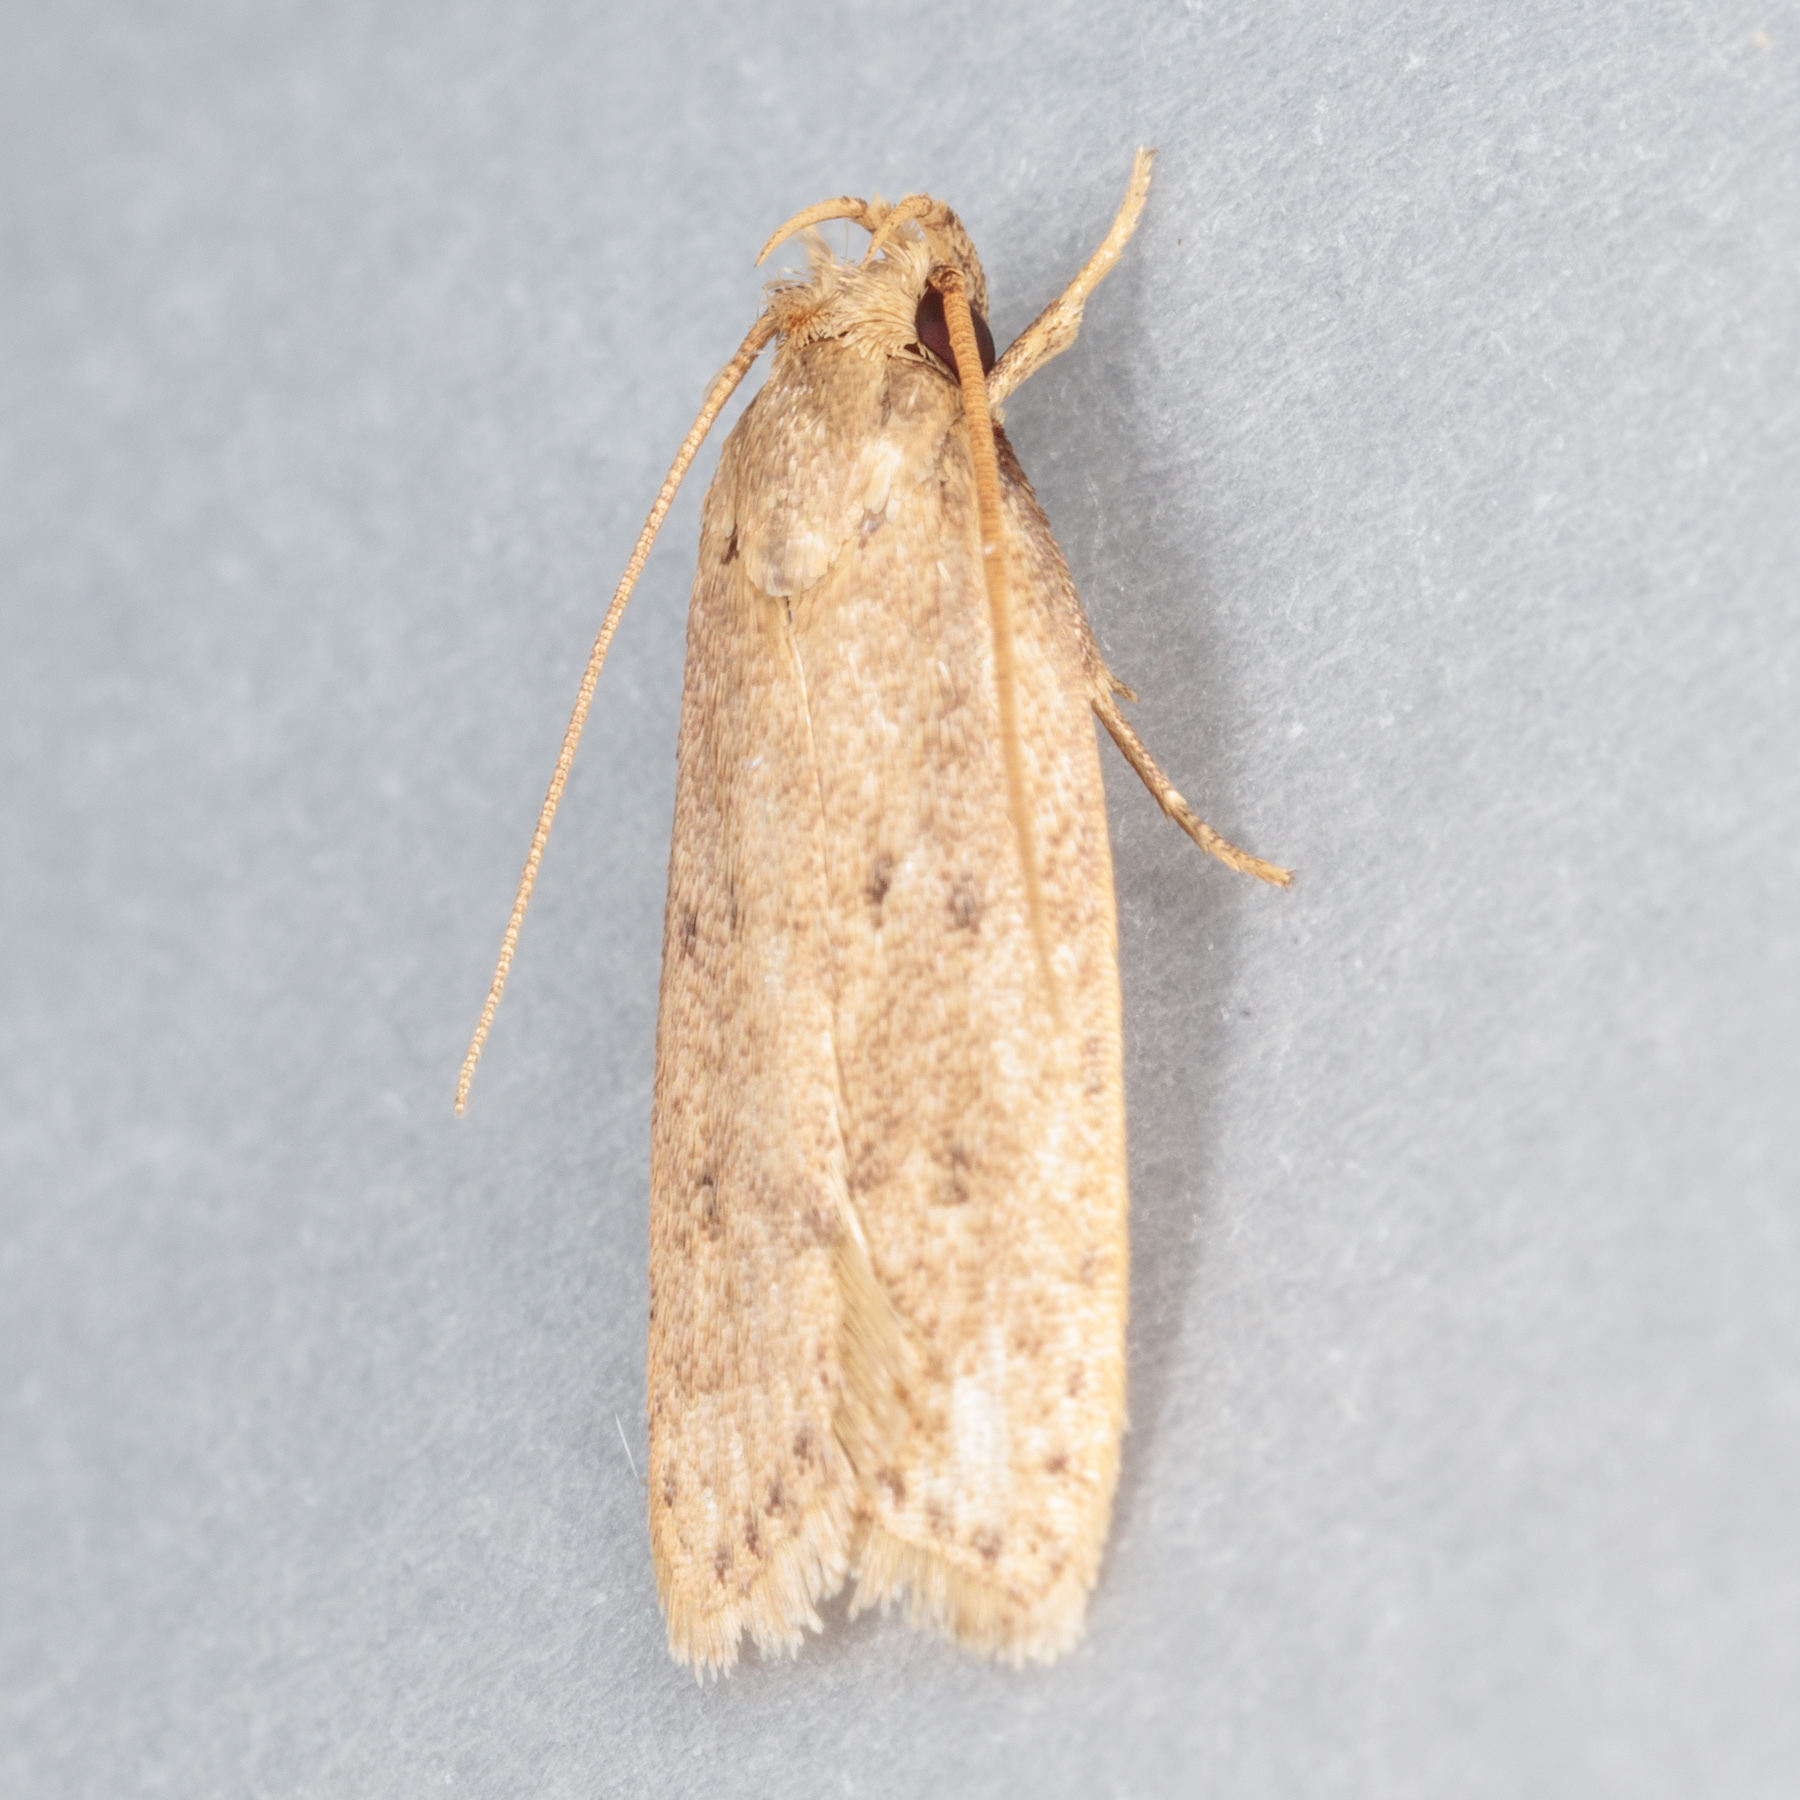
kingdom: Animalia
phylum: Arthropoda
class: Insecta
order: Lepidoptera
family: Autostichidae
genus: Autosticha
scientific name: Autosticha kyotensis
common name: Kyoto moth
